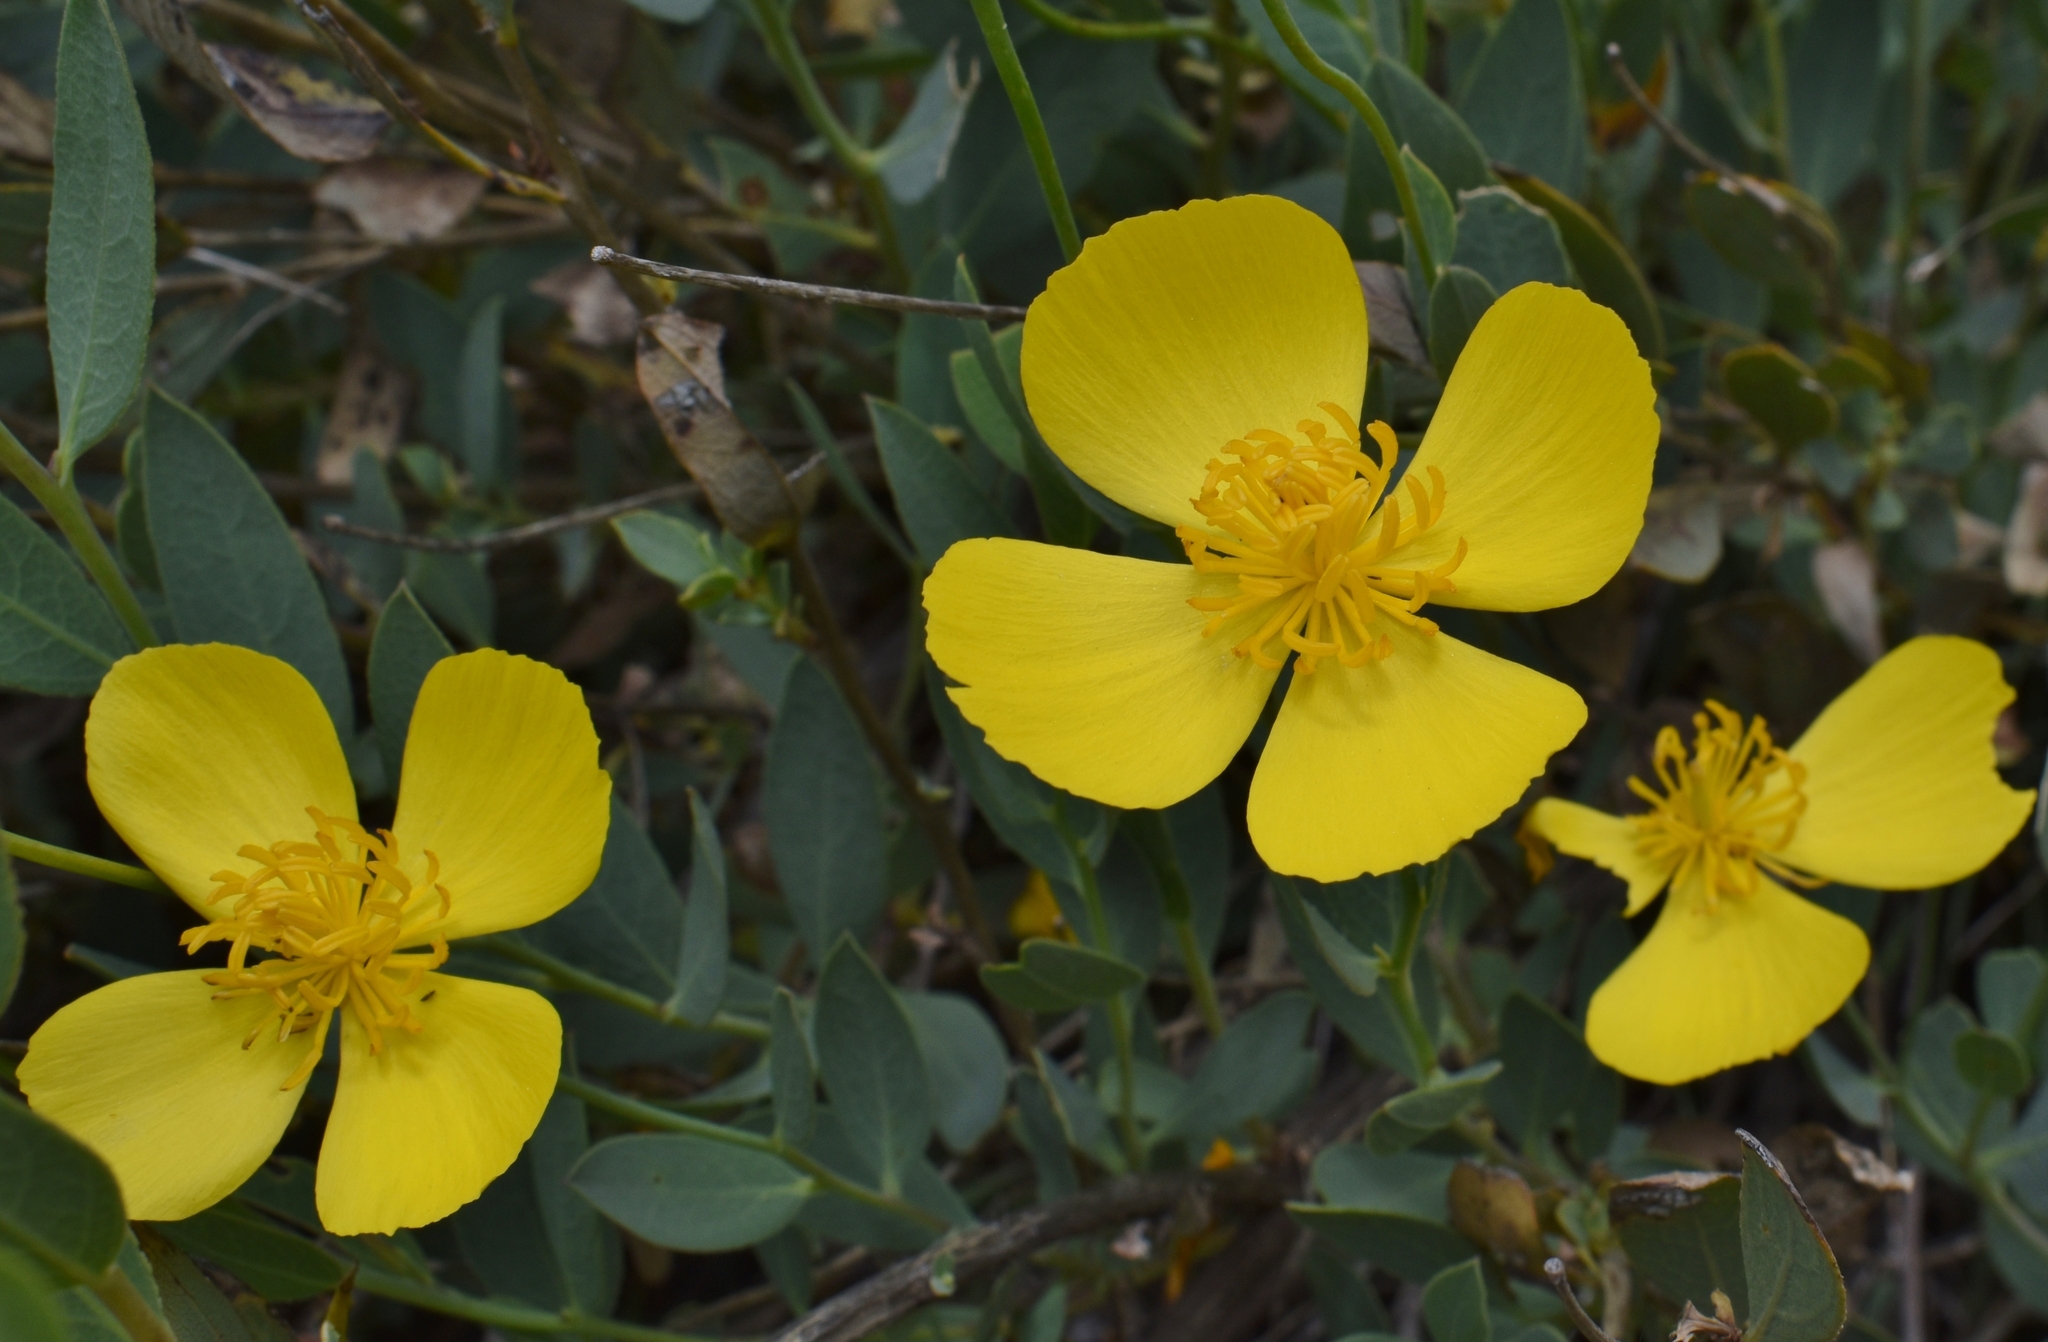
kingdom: Plantae
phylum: Tracheophyta
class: Magnoliopsida
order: Ranunculales
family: Papaveraceae
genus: Dendromecon
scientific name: Dendromecon rigida
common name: Tree poppy
